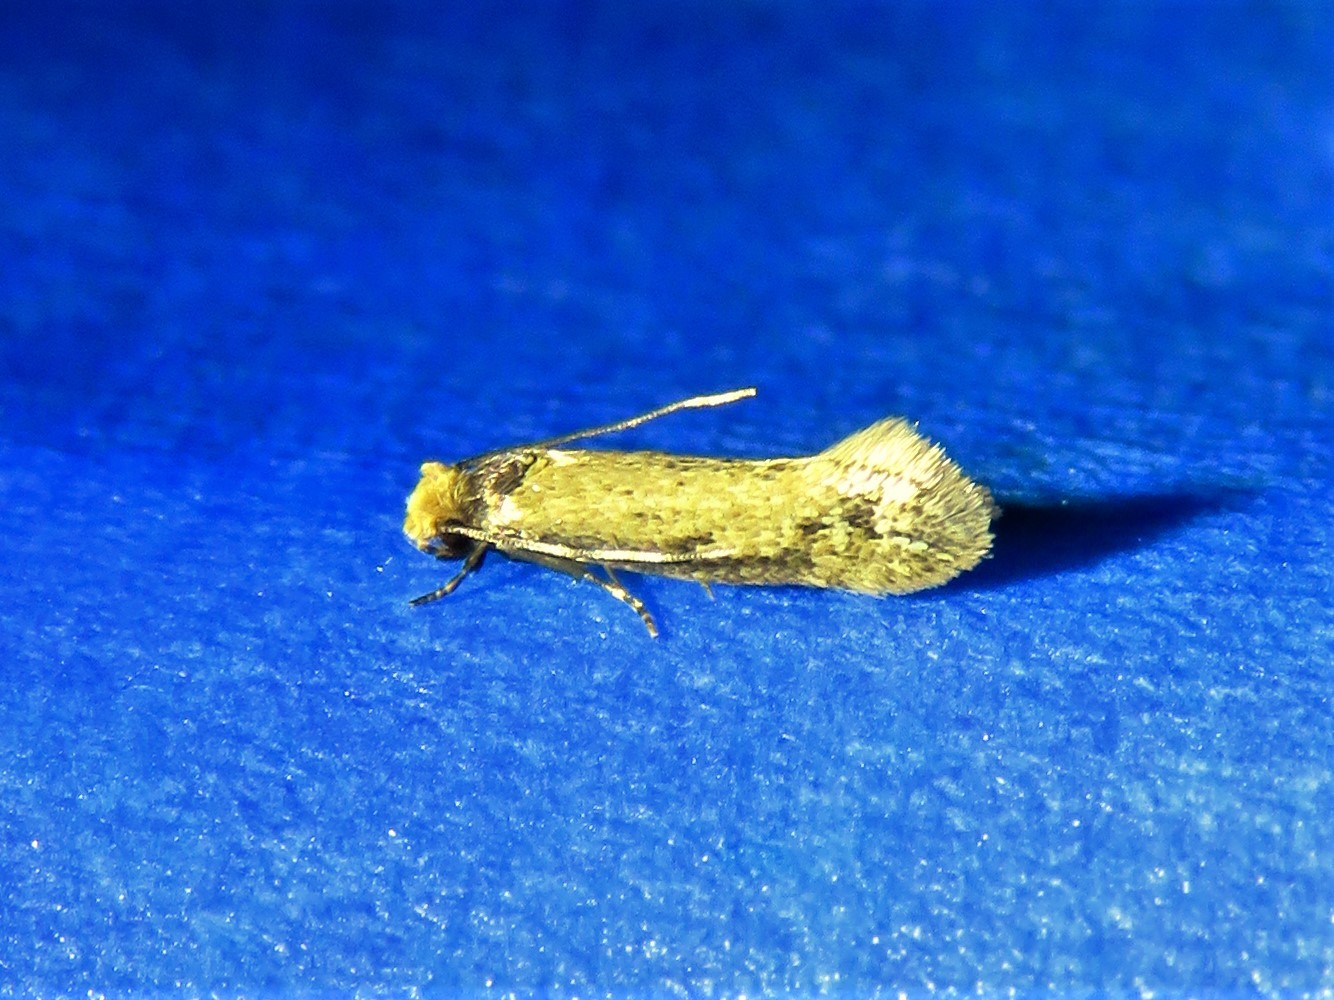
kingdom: Animalia
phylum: Arthropoda
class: Insecta
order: Lepidoptera
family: Meessiidae
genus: Homostinea
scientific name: Homostinea curviliniella
